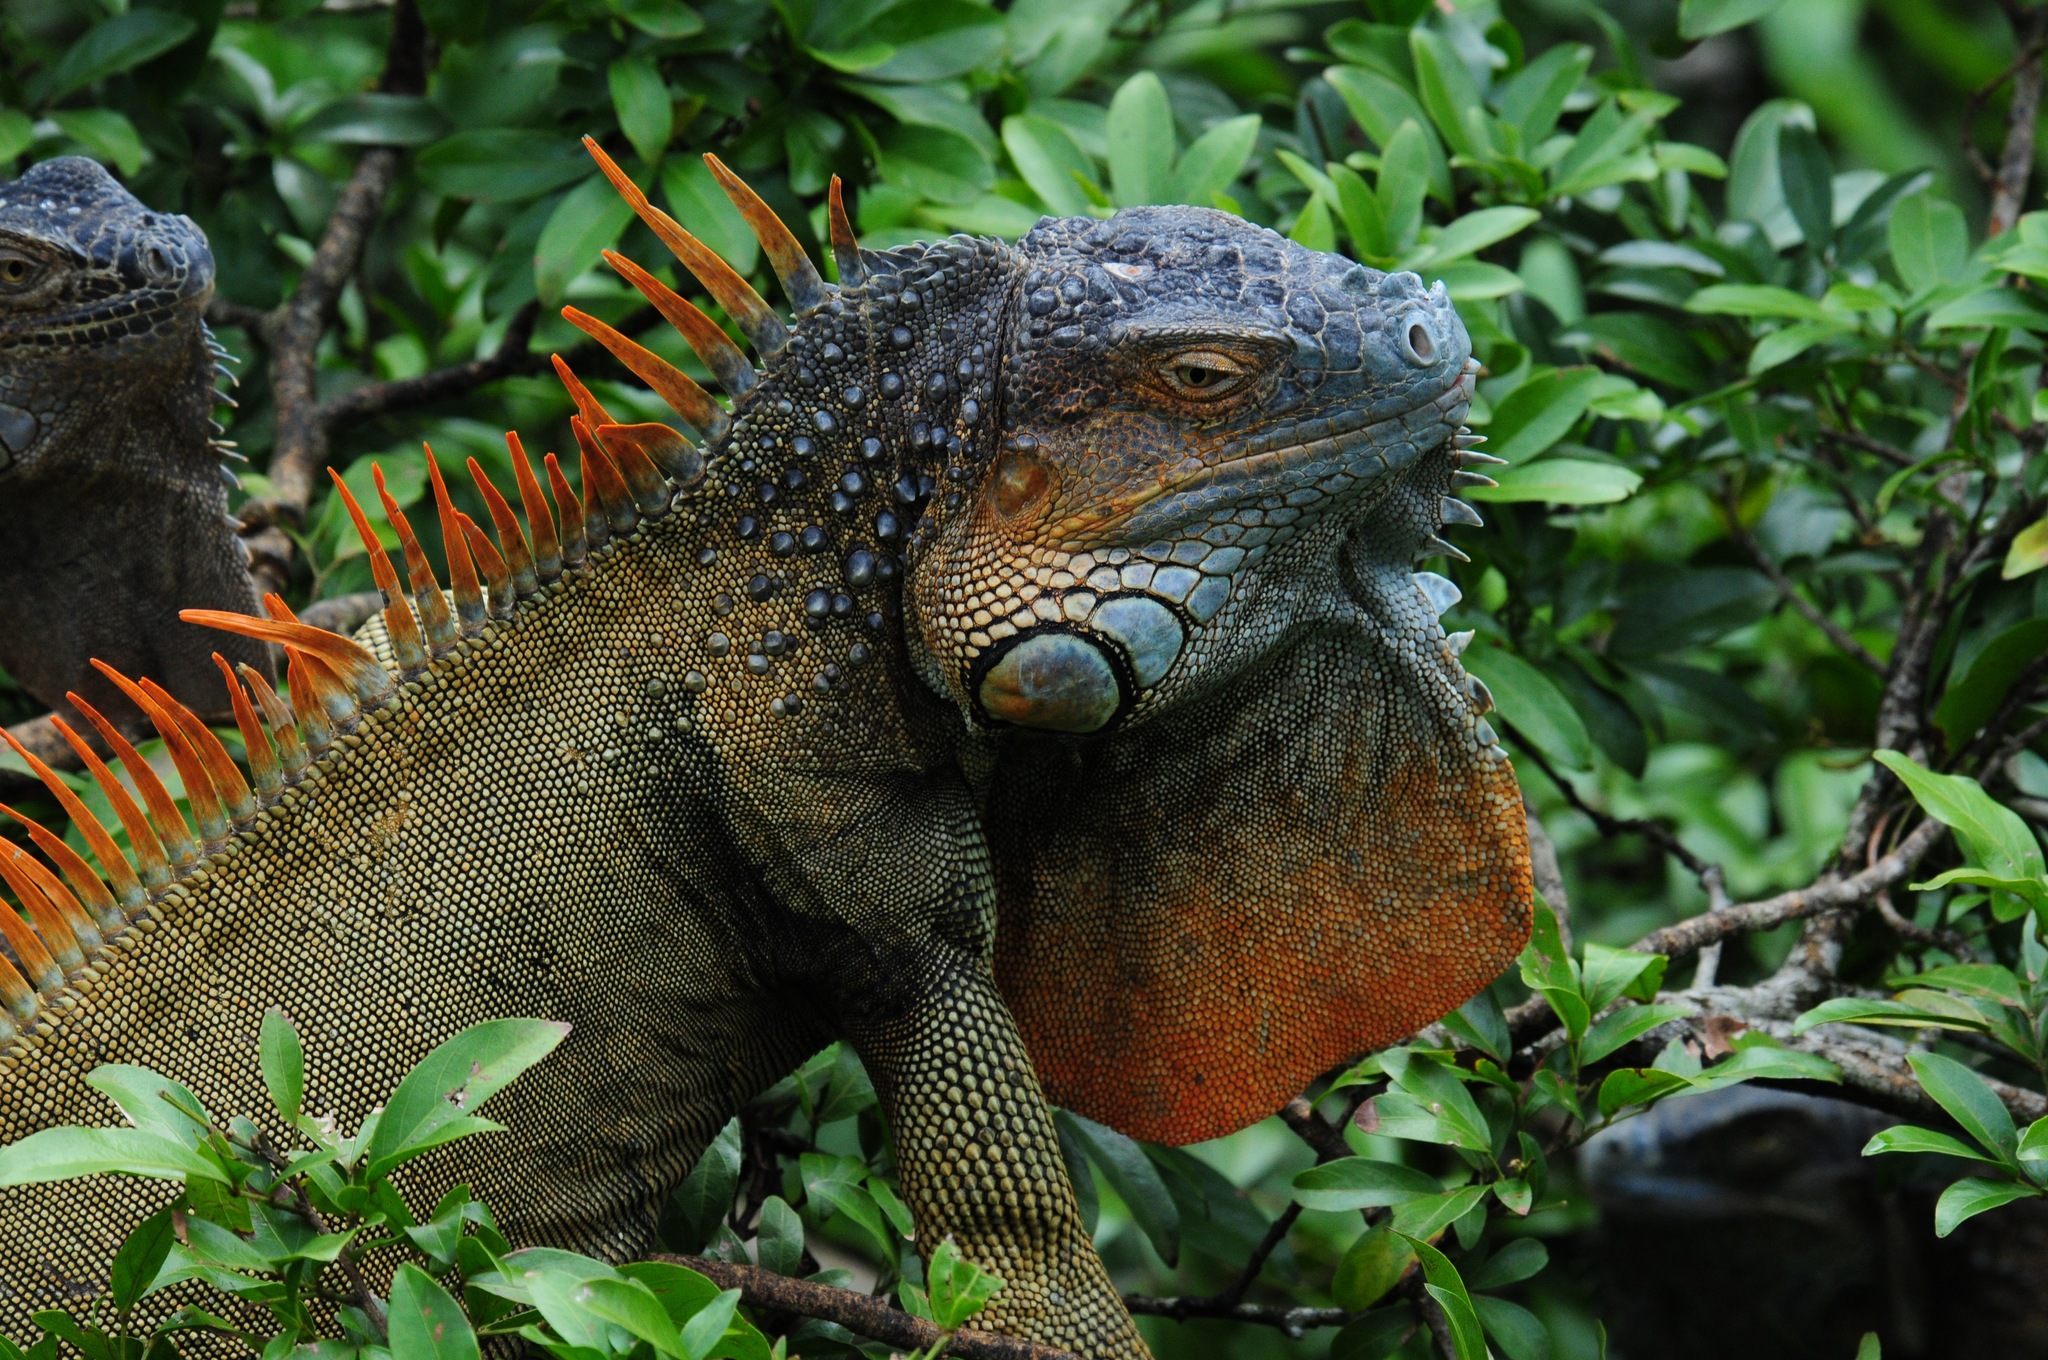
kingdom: Animalia
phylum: Chordata
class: Squamata
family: Iguanidae
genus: Iguana
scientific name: Iguana iguana
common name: Green iguana
